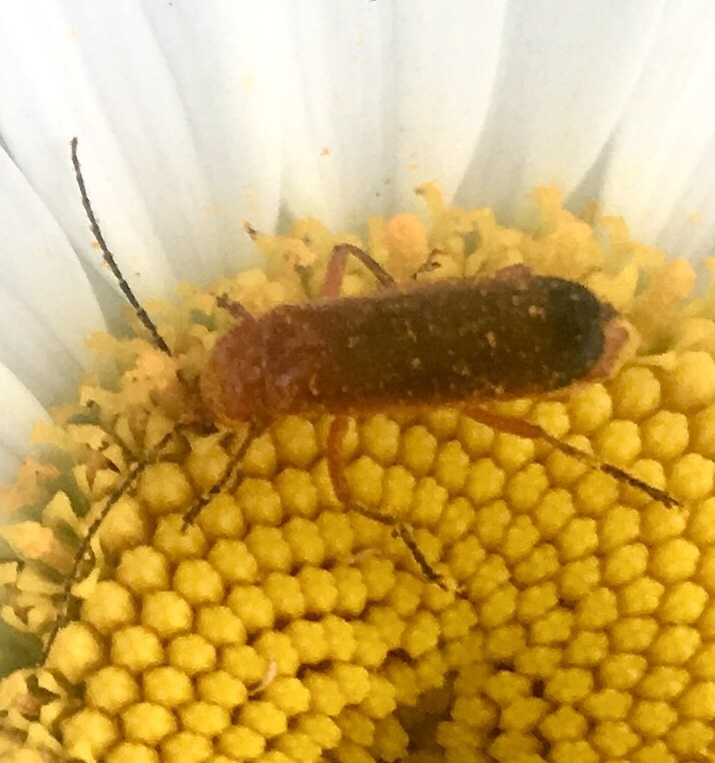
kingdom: Animalia
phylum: Arthropoda
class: Insecta
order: Coleoptera
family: Cantharidae
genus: Rhagonycha
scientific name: Rhagonycha fulva
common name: Common red soldier beetle
